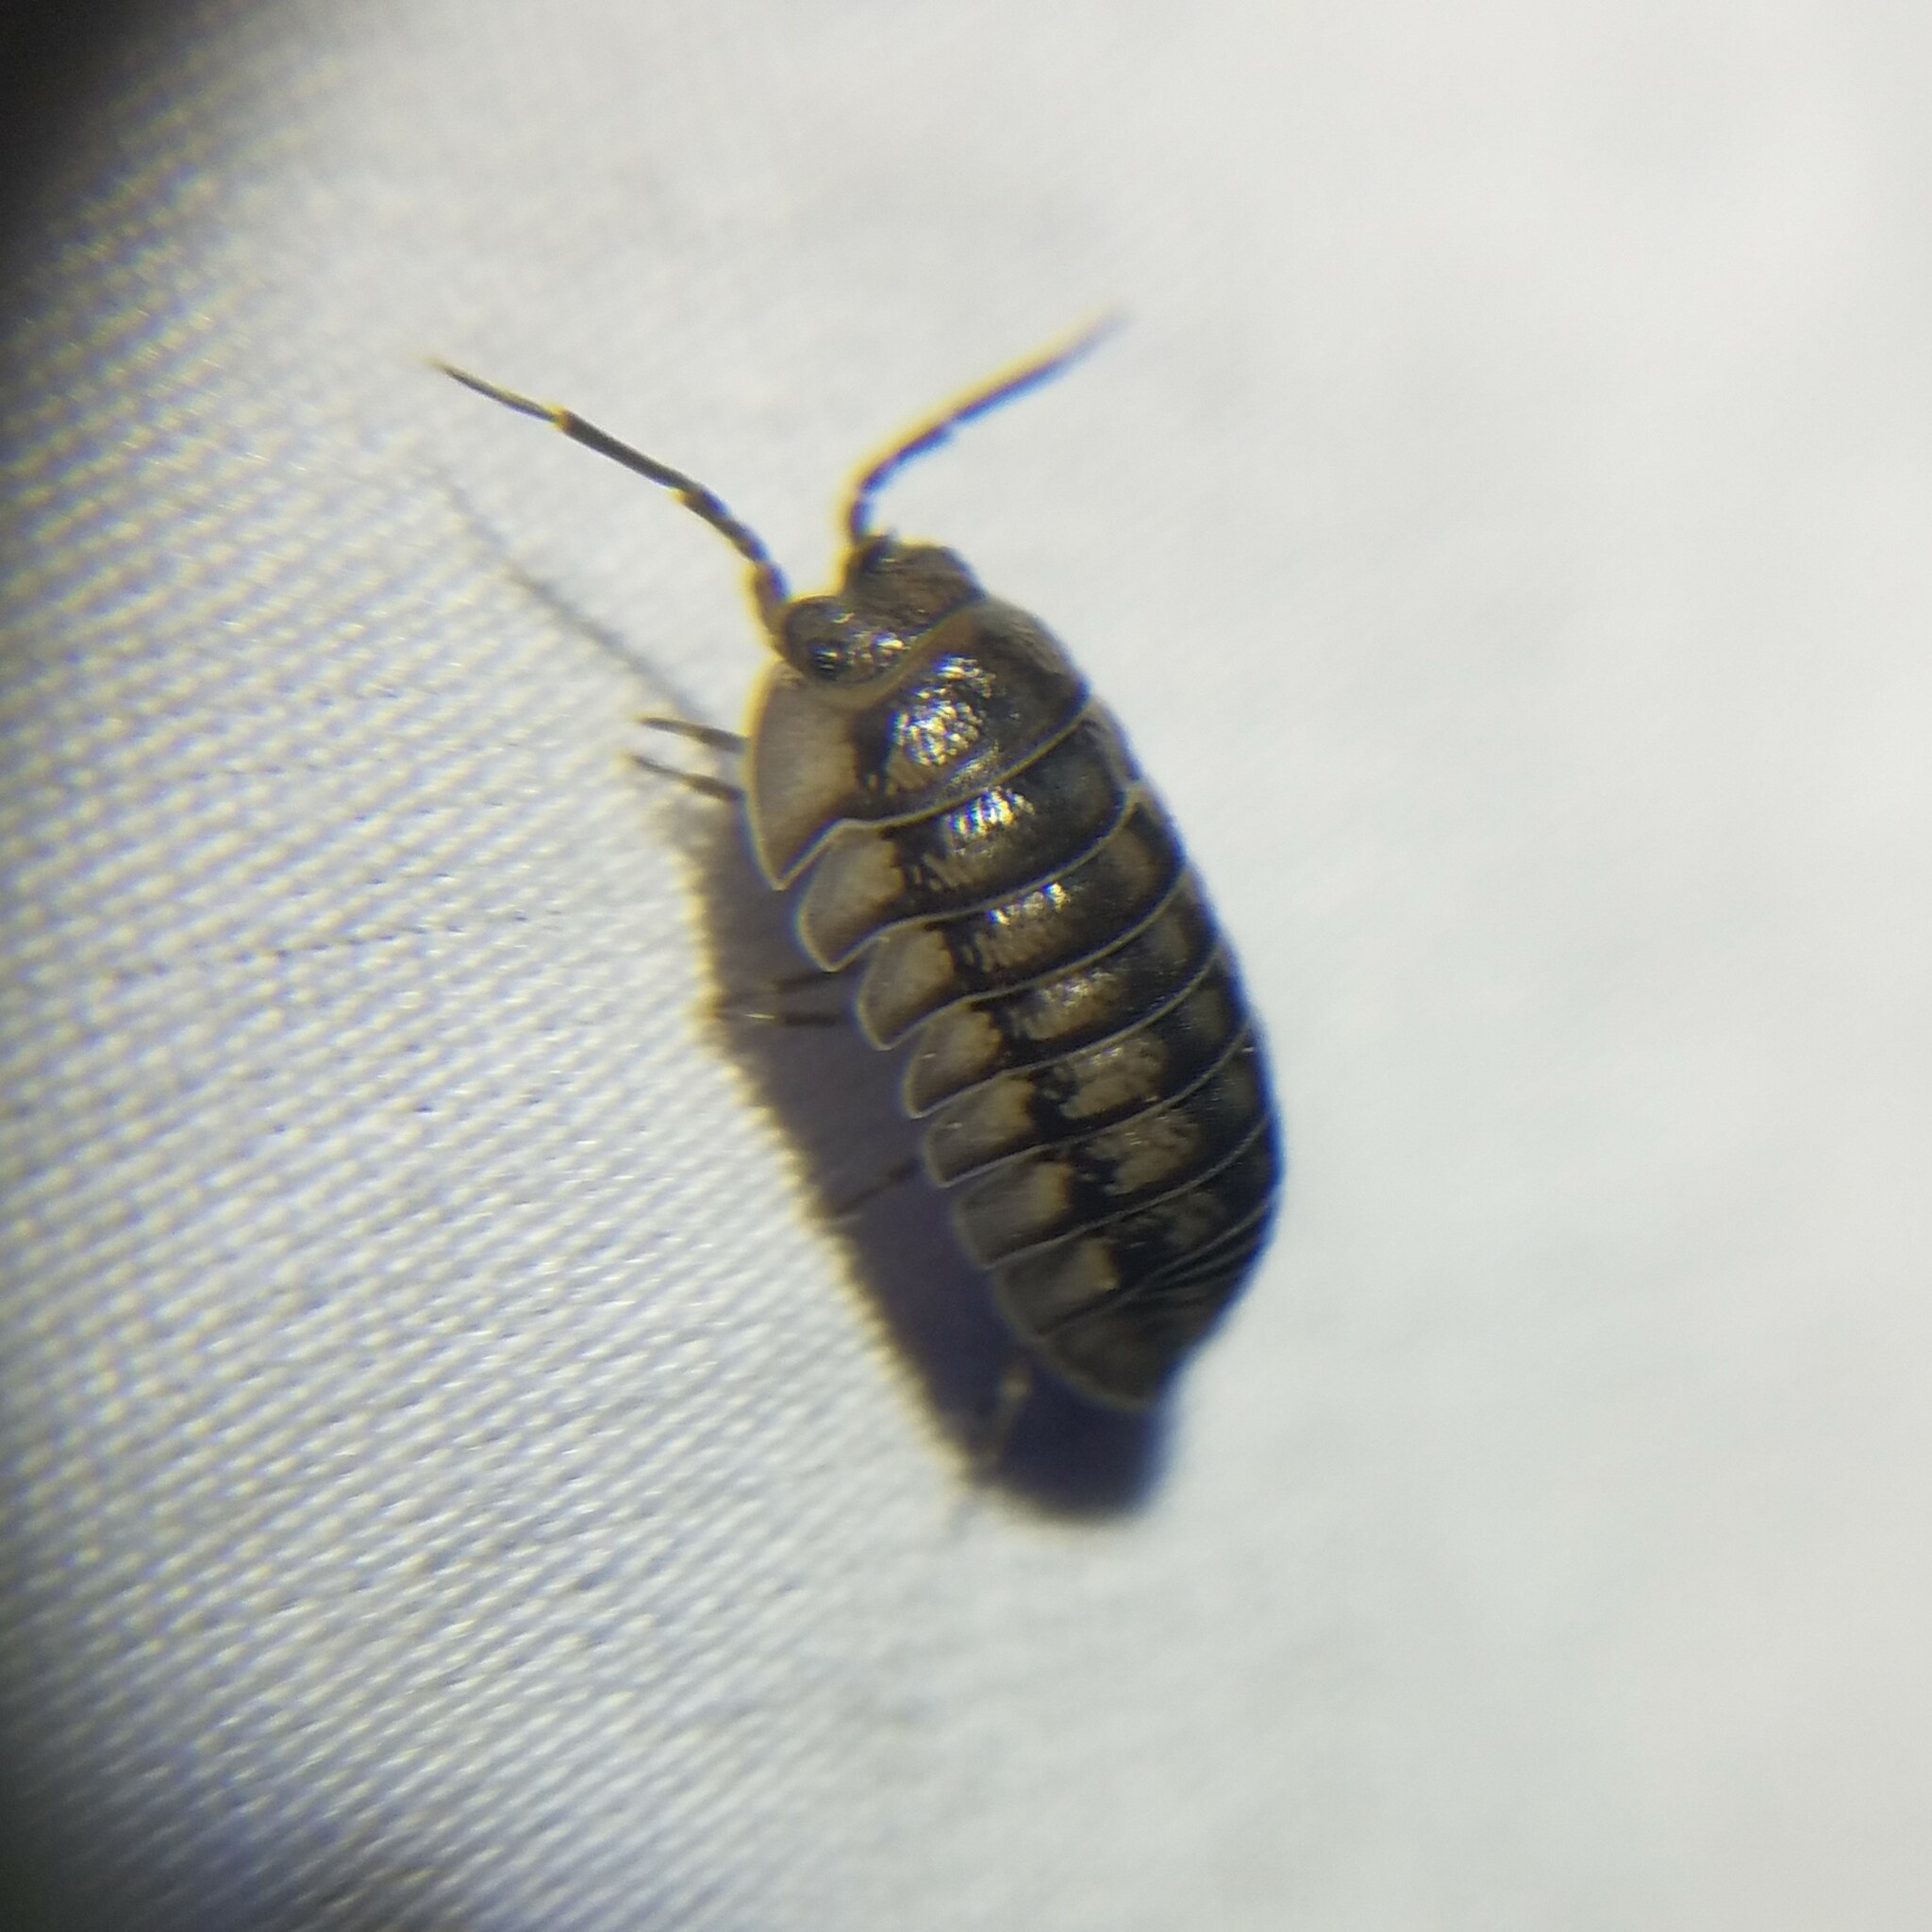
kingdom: Animalia
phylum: Arthropoda
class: Malacostraca
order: Isopoda
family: Armadillidiidae
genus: Armadillidium
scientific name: Armadillidium nasatum
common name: Isopod
